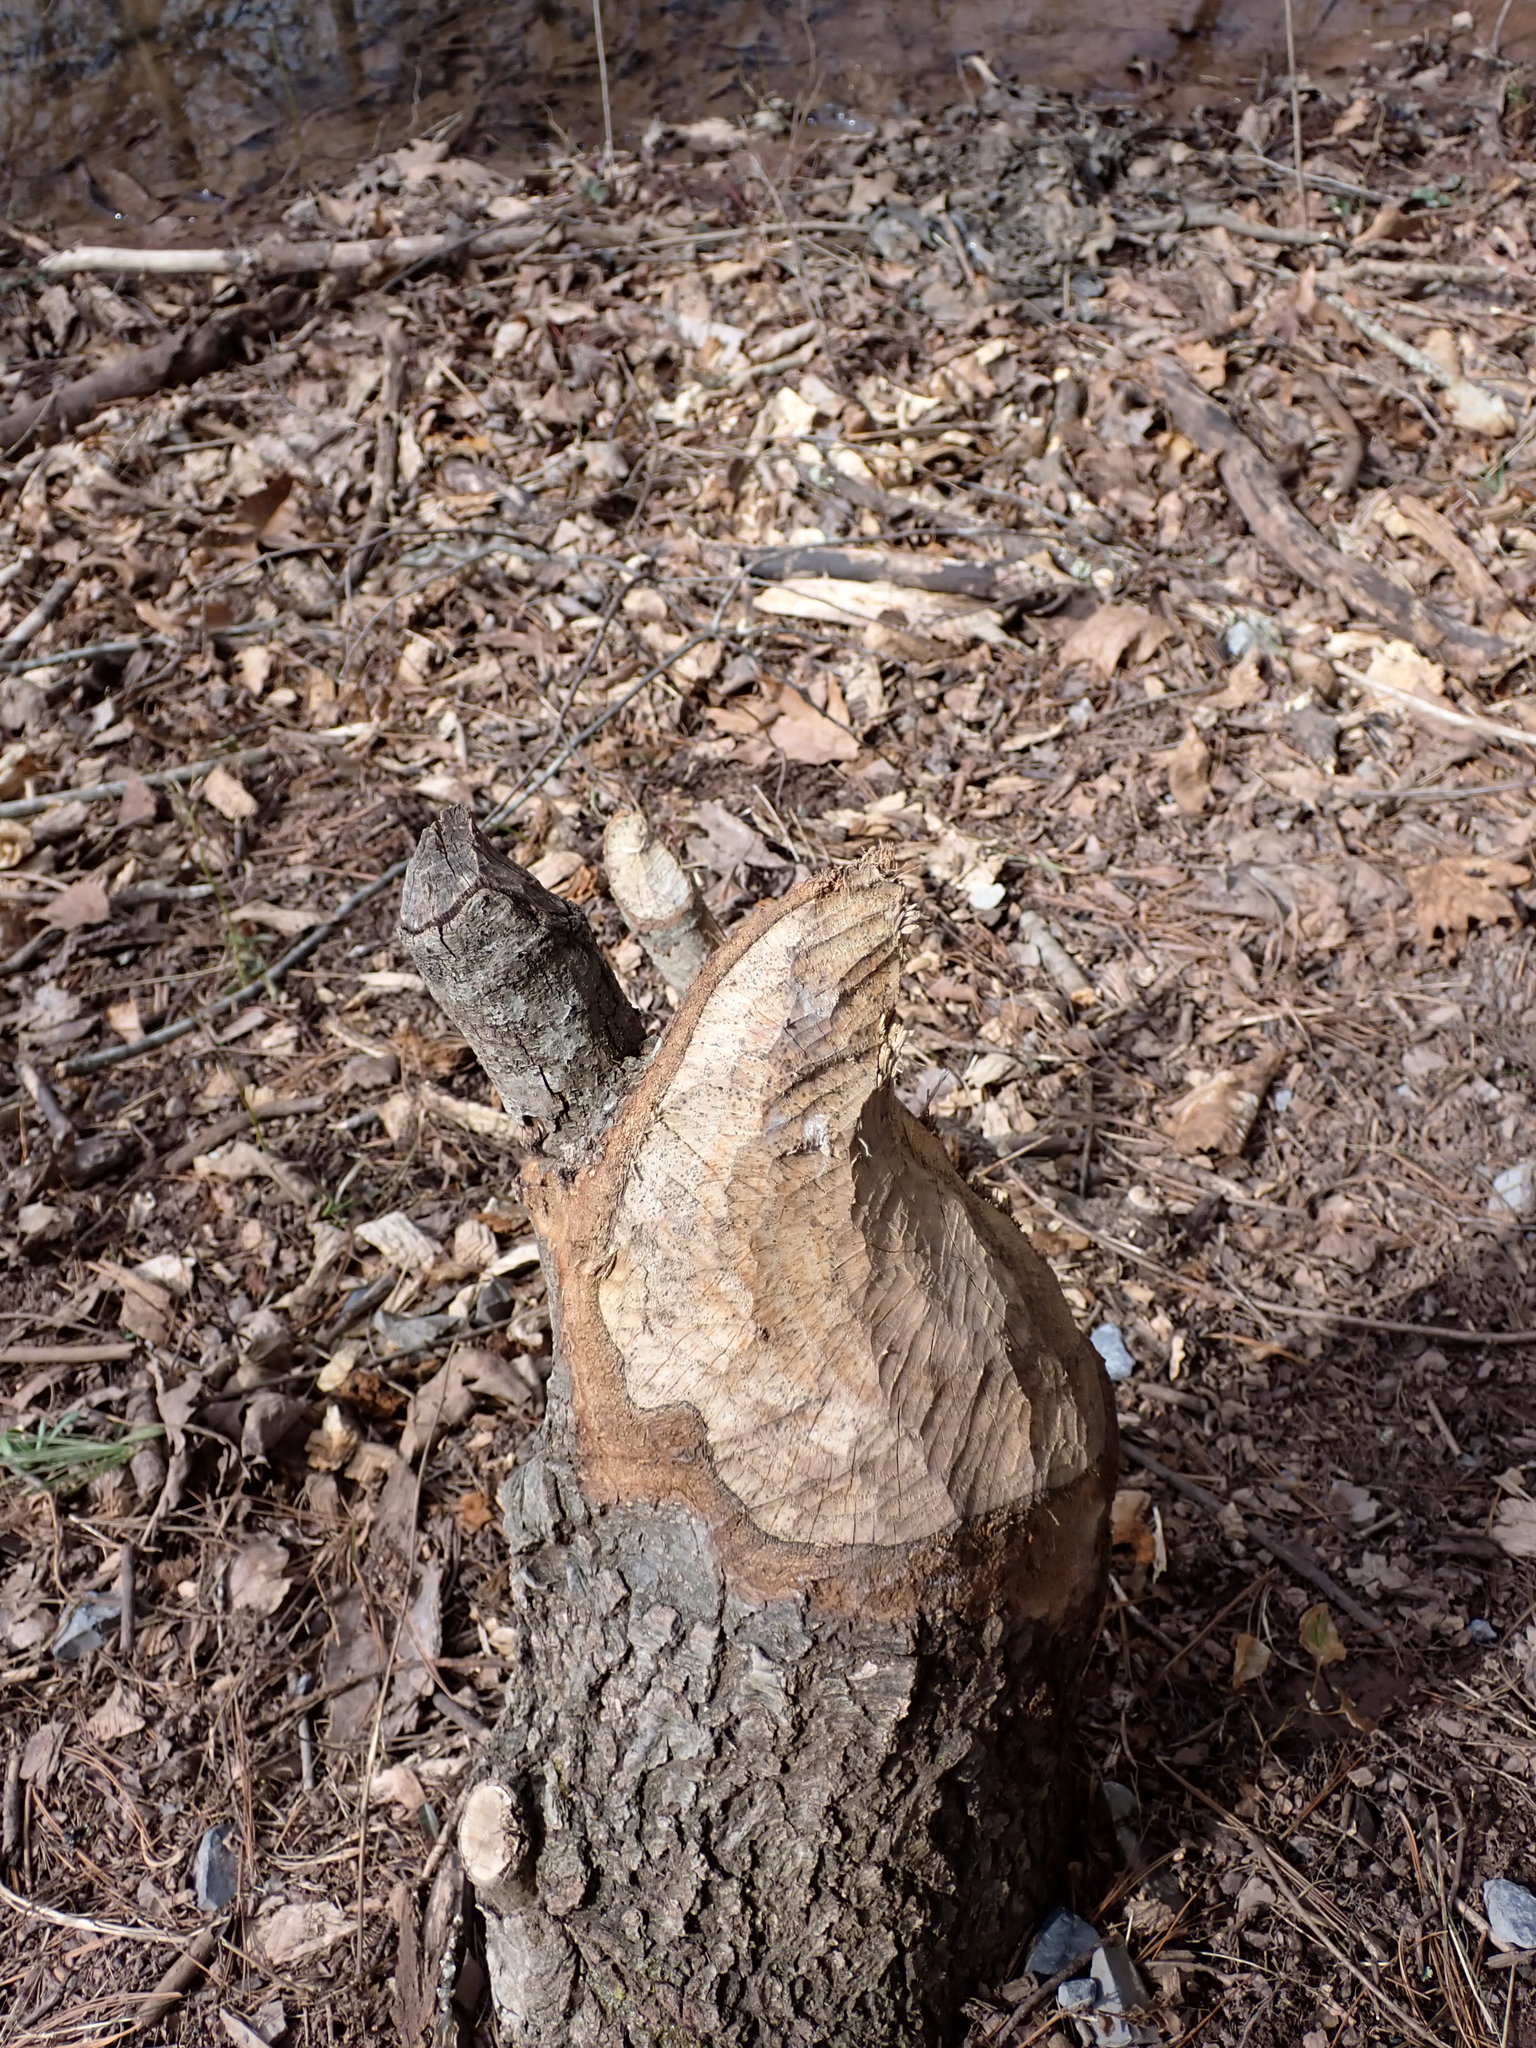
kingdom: Animalia
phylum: Chordata
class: Mammalia
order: Rodentia
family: Castoridae
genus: Castor
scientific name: Castor canadensis
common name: American beaver
